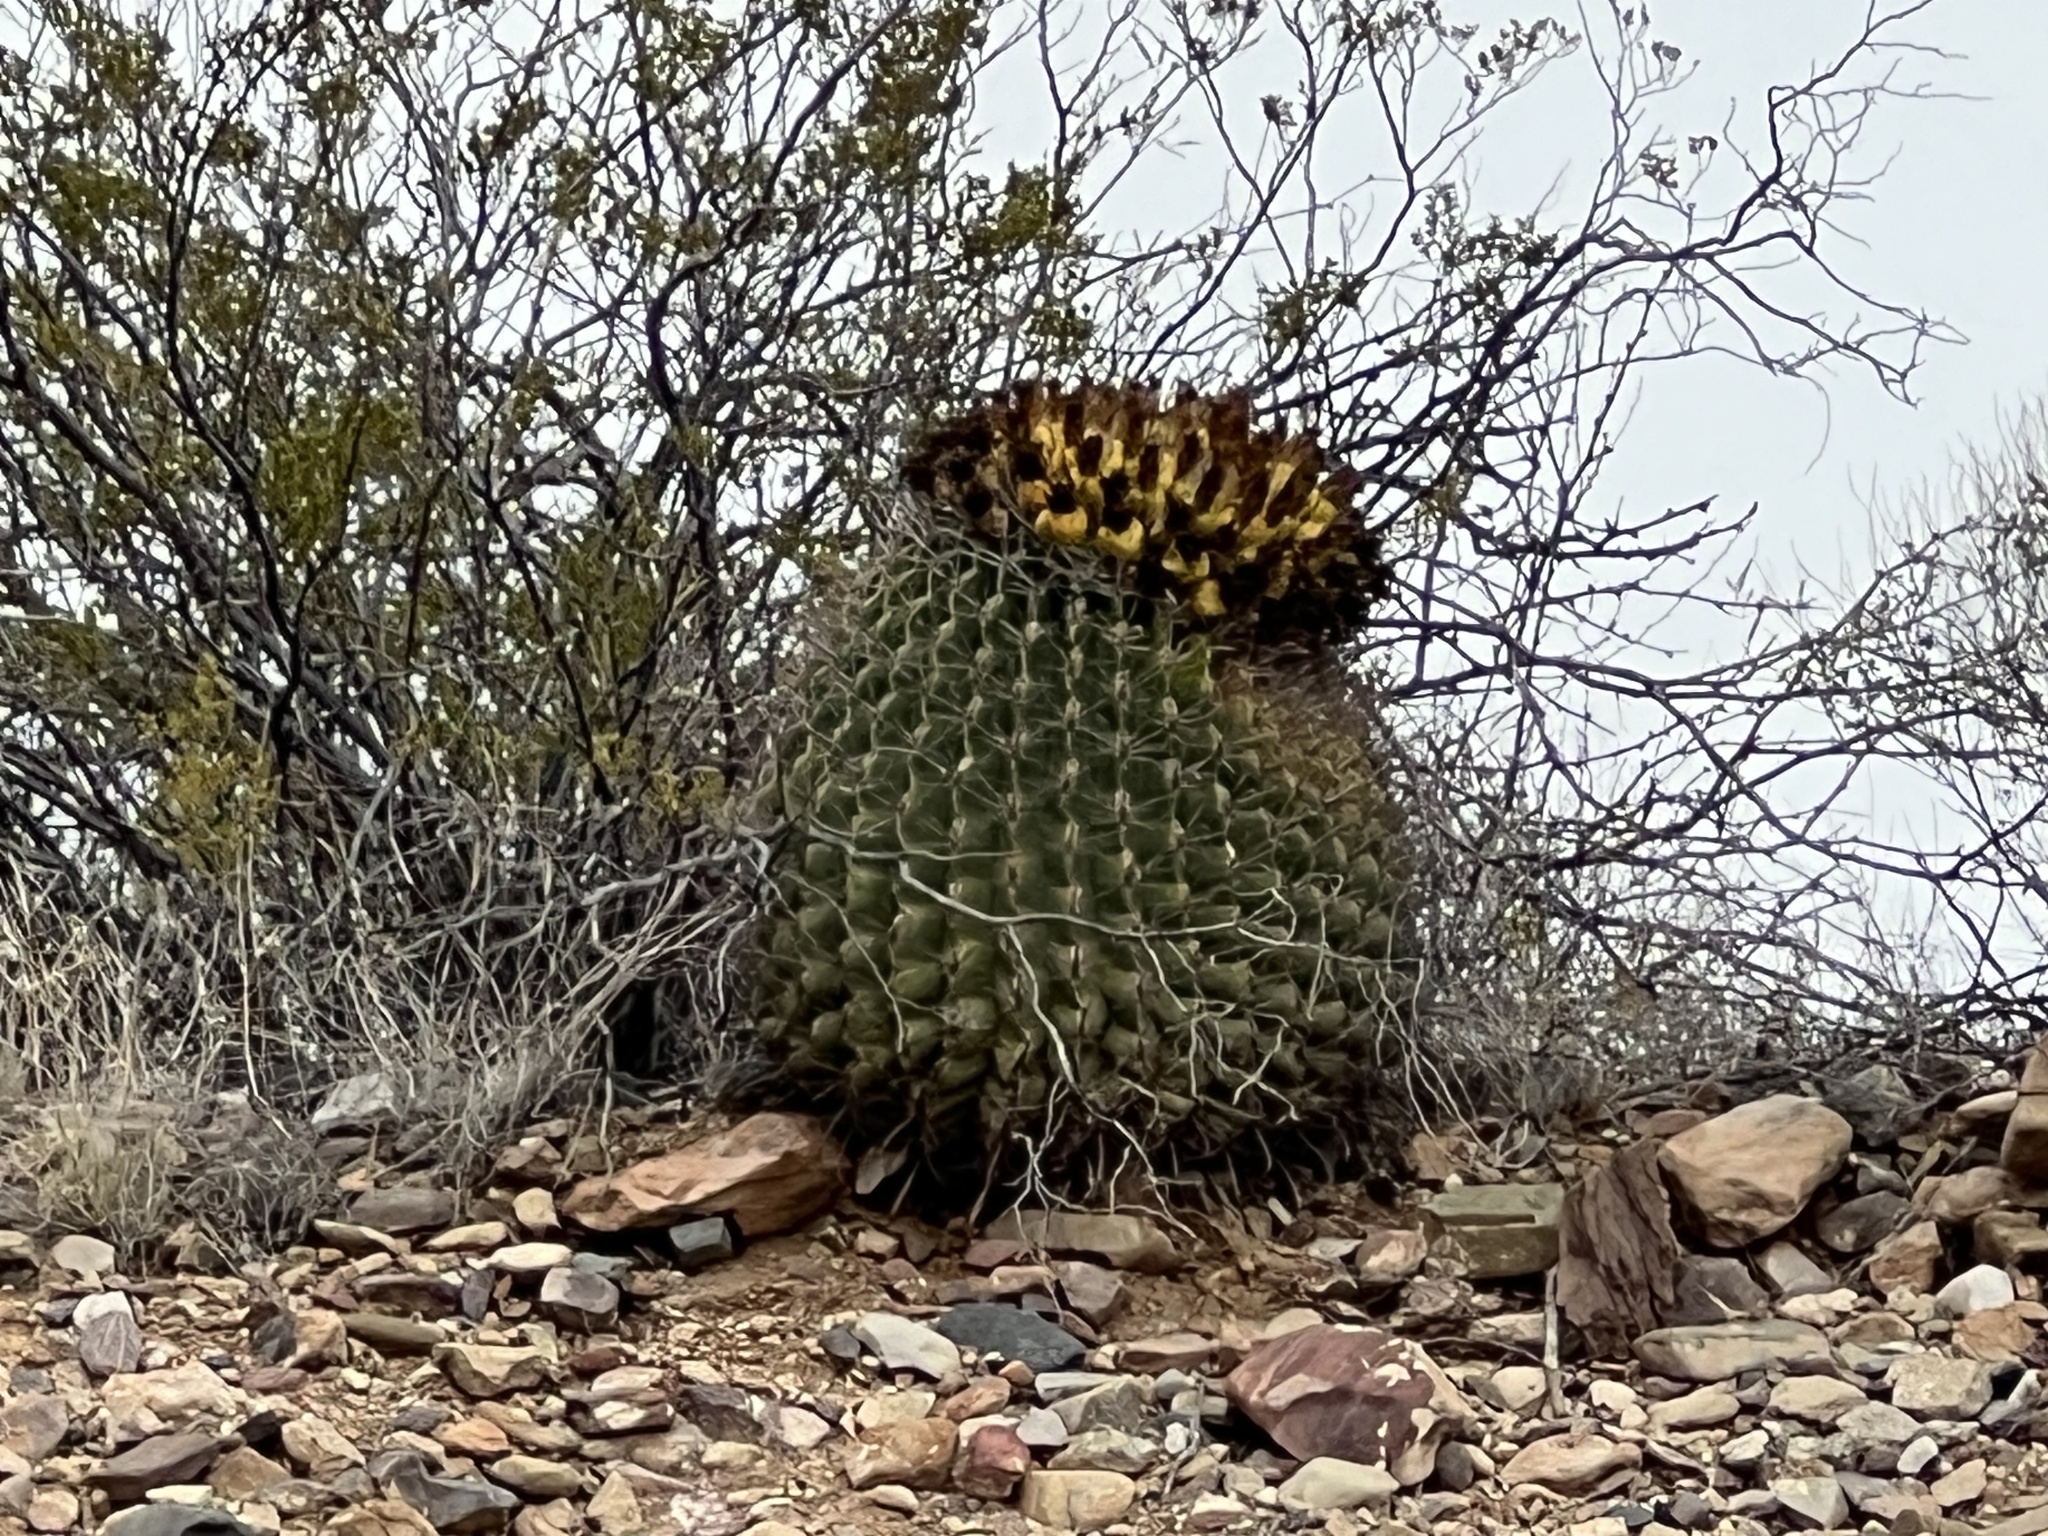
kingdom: Plantae
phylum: Tracheophyta
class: Magnoliopsida
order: Caryophyllales
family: Cactaceae
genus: Ferocactus
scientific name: Ferocactus wislizeni
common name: Candy barrel cactus
